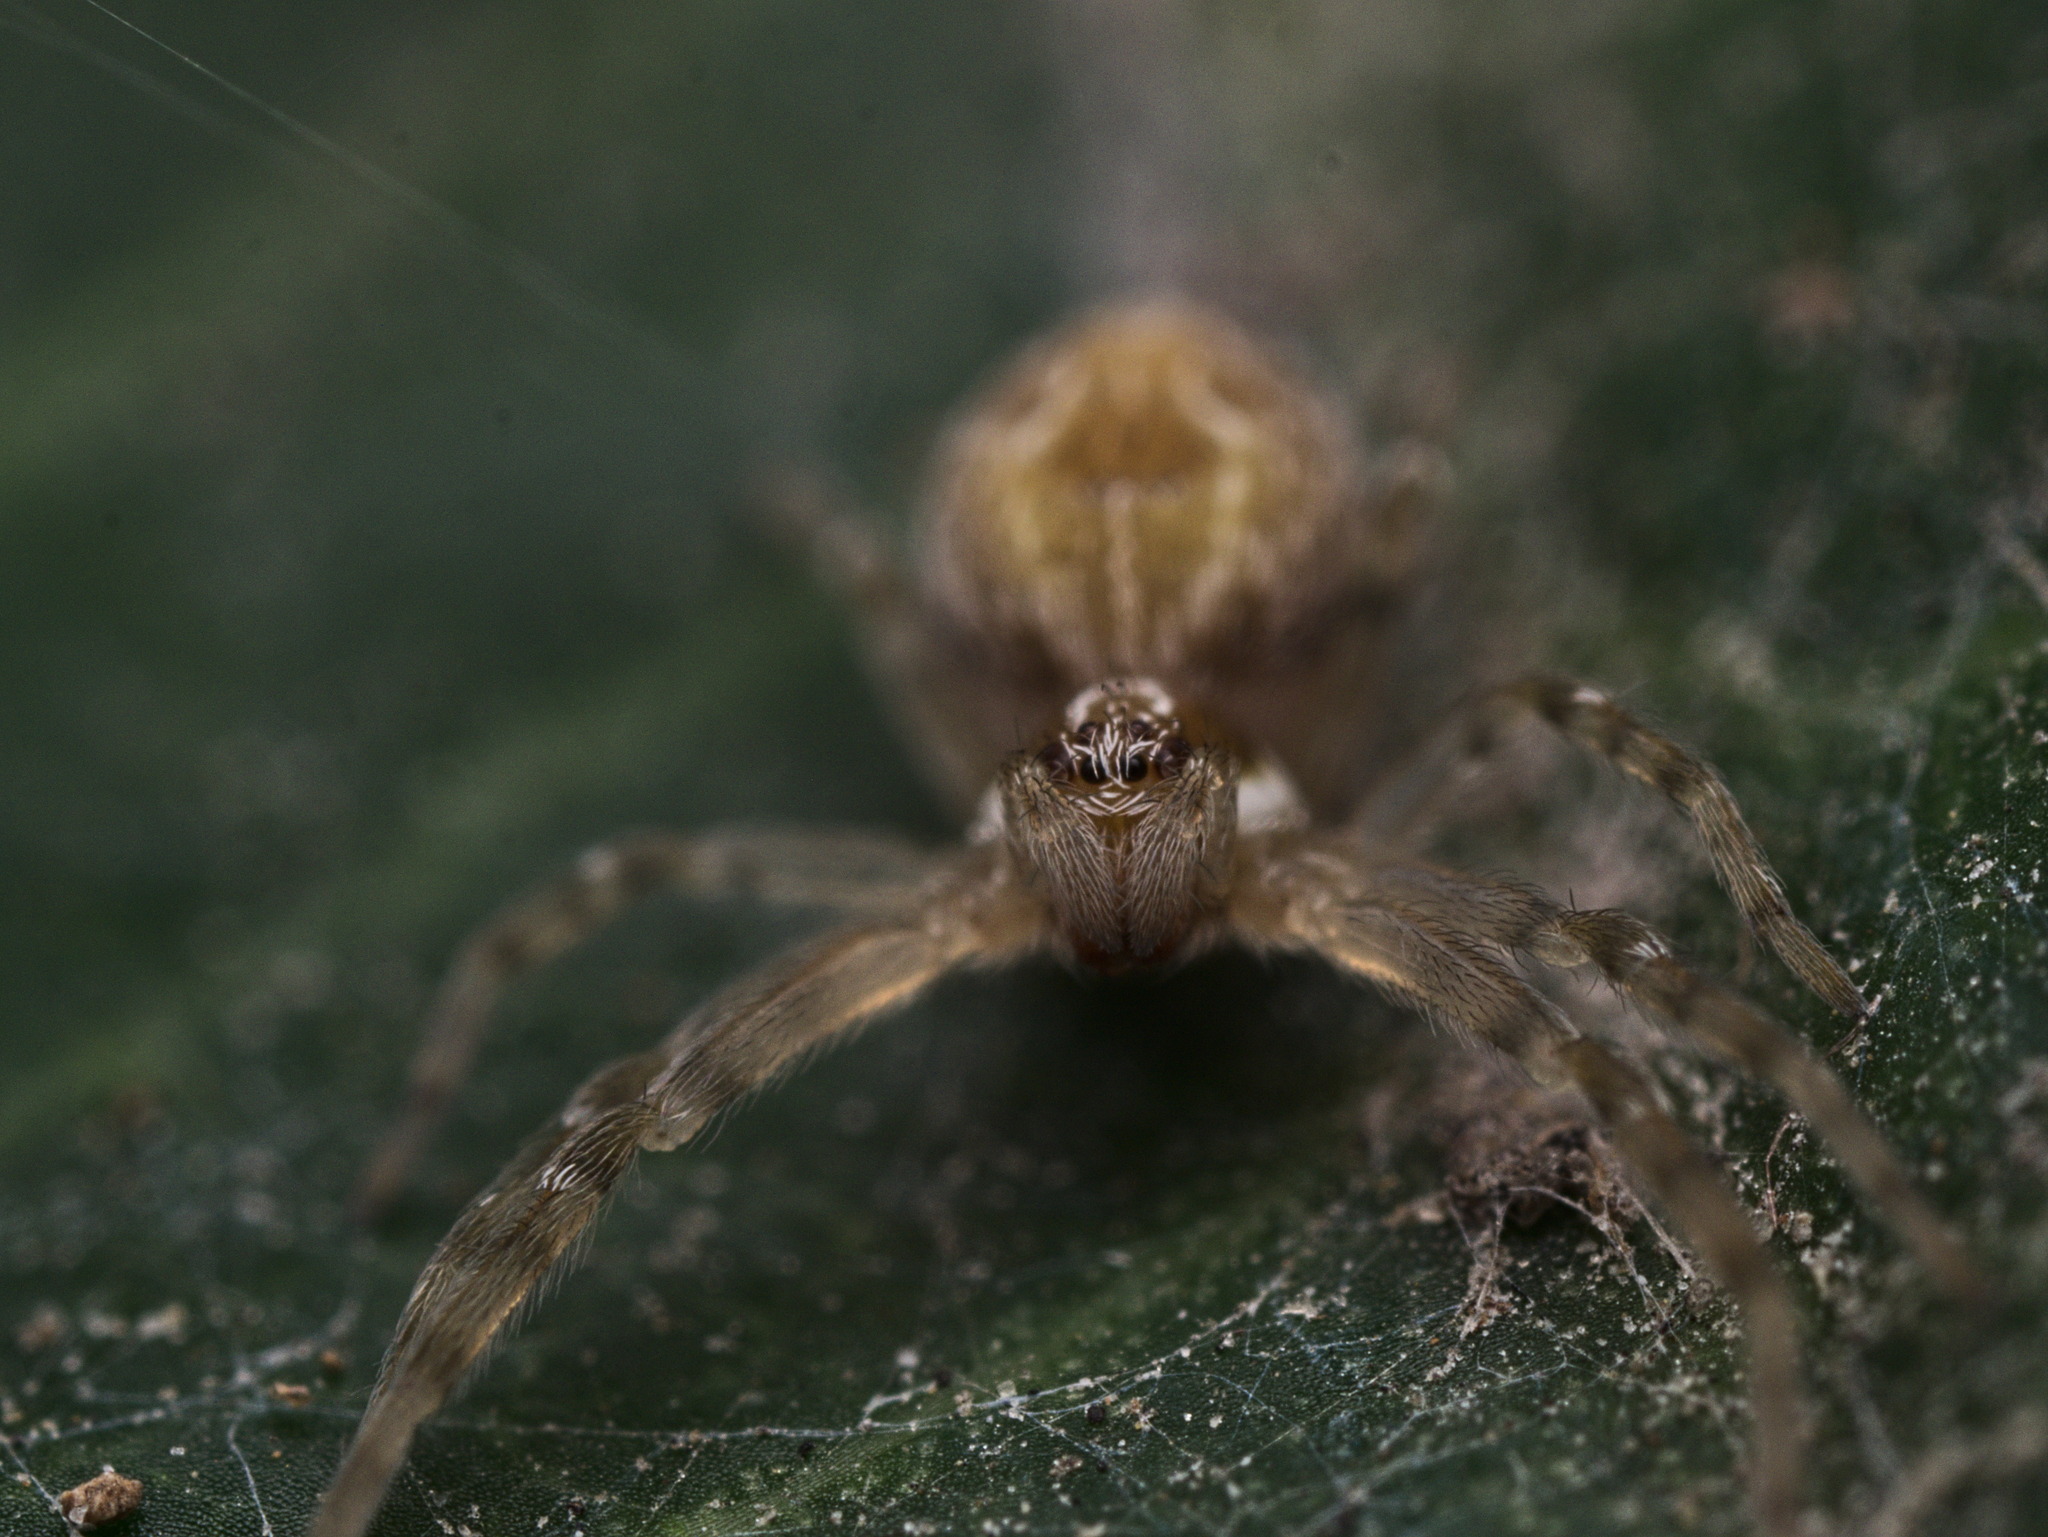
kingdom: Animalia
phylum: Arthropoda
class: Arachnida
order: Araneae
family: Dictynidae
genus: Mallos
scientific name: Mallos
